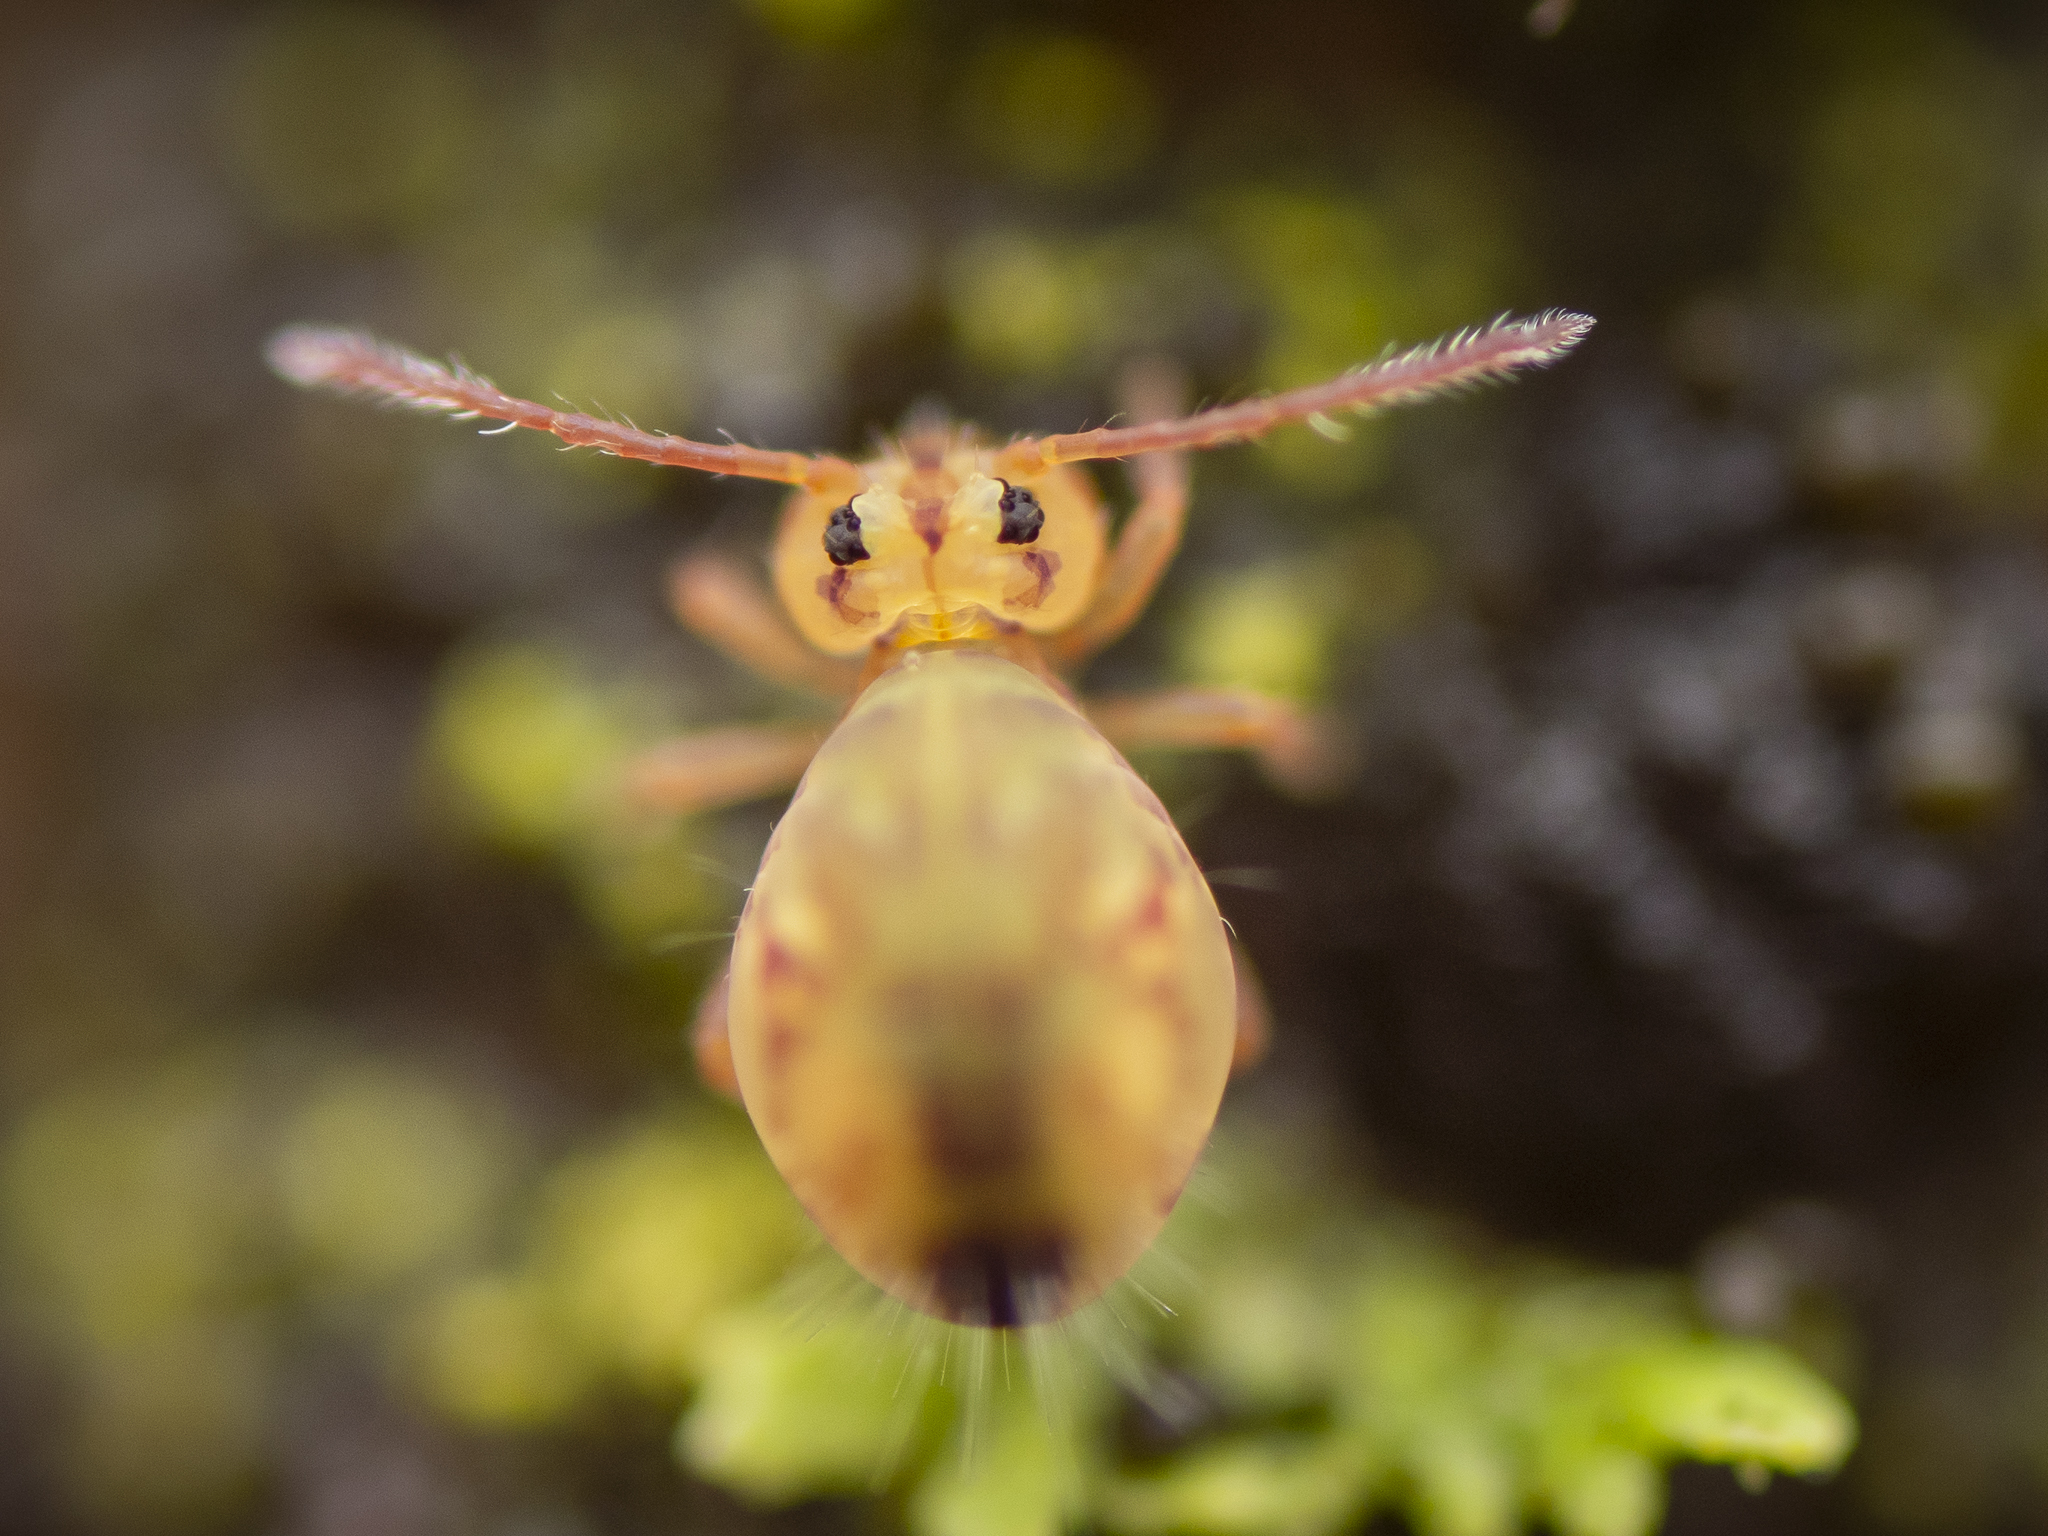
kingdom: Animalia
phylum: Arthropoda
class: Collembola
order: Symphypleona
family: Dicyrtomidae
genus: Dicyrtomina
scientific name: Dicyrtomina ornata
